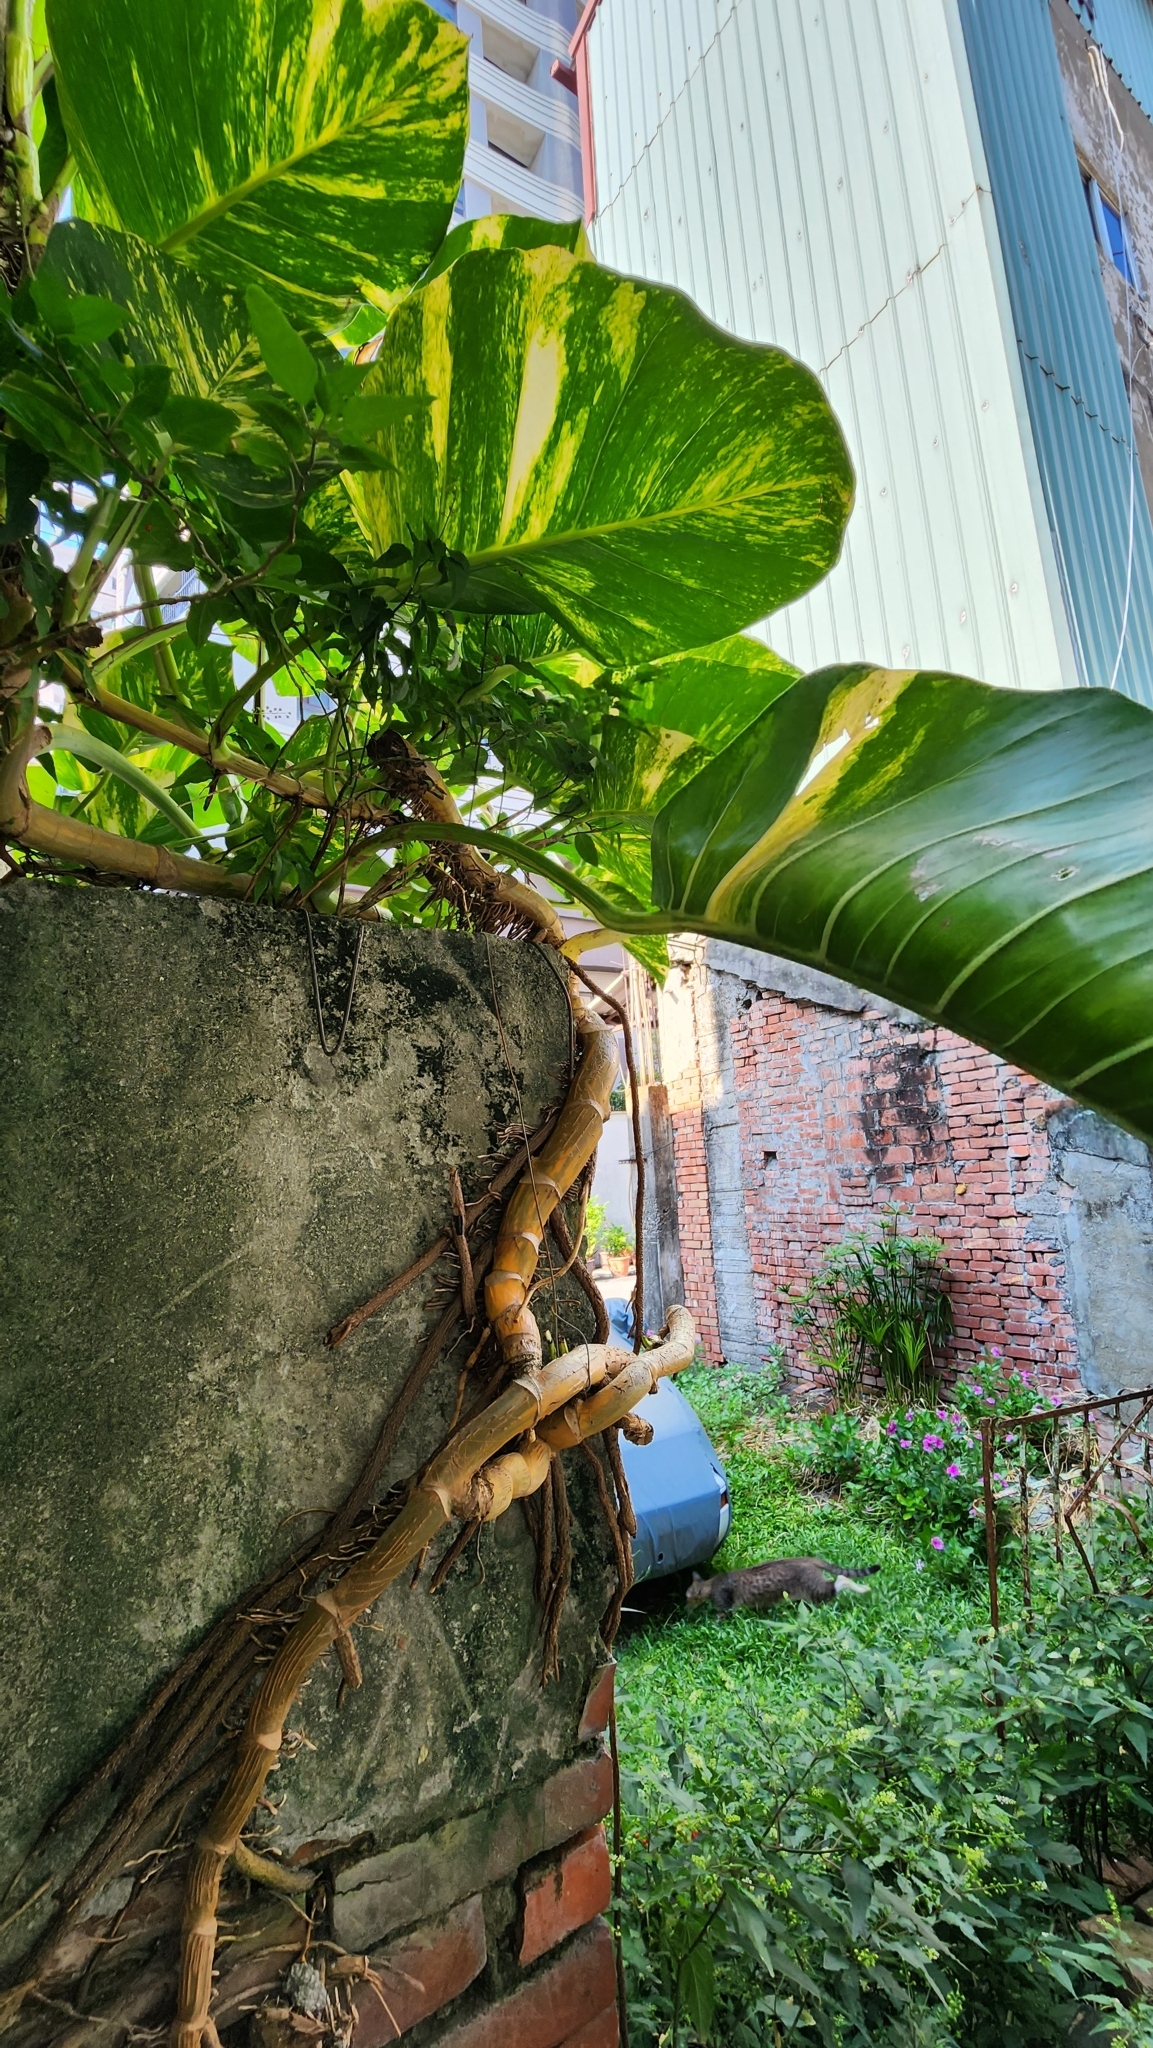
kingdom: Plantae
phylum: Tracheophyta
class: Liliopsida
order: Alismatales
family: Araceae
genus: Epipremnum
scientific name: Epipremnum aureum
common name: Golden hunter's-robe
